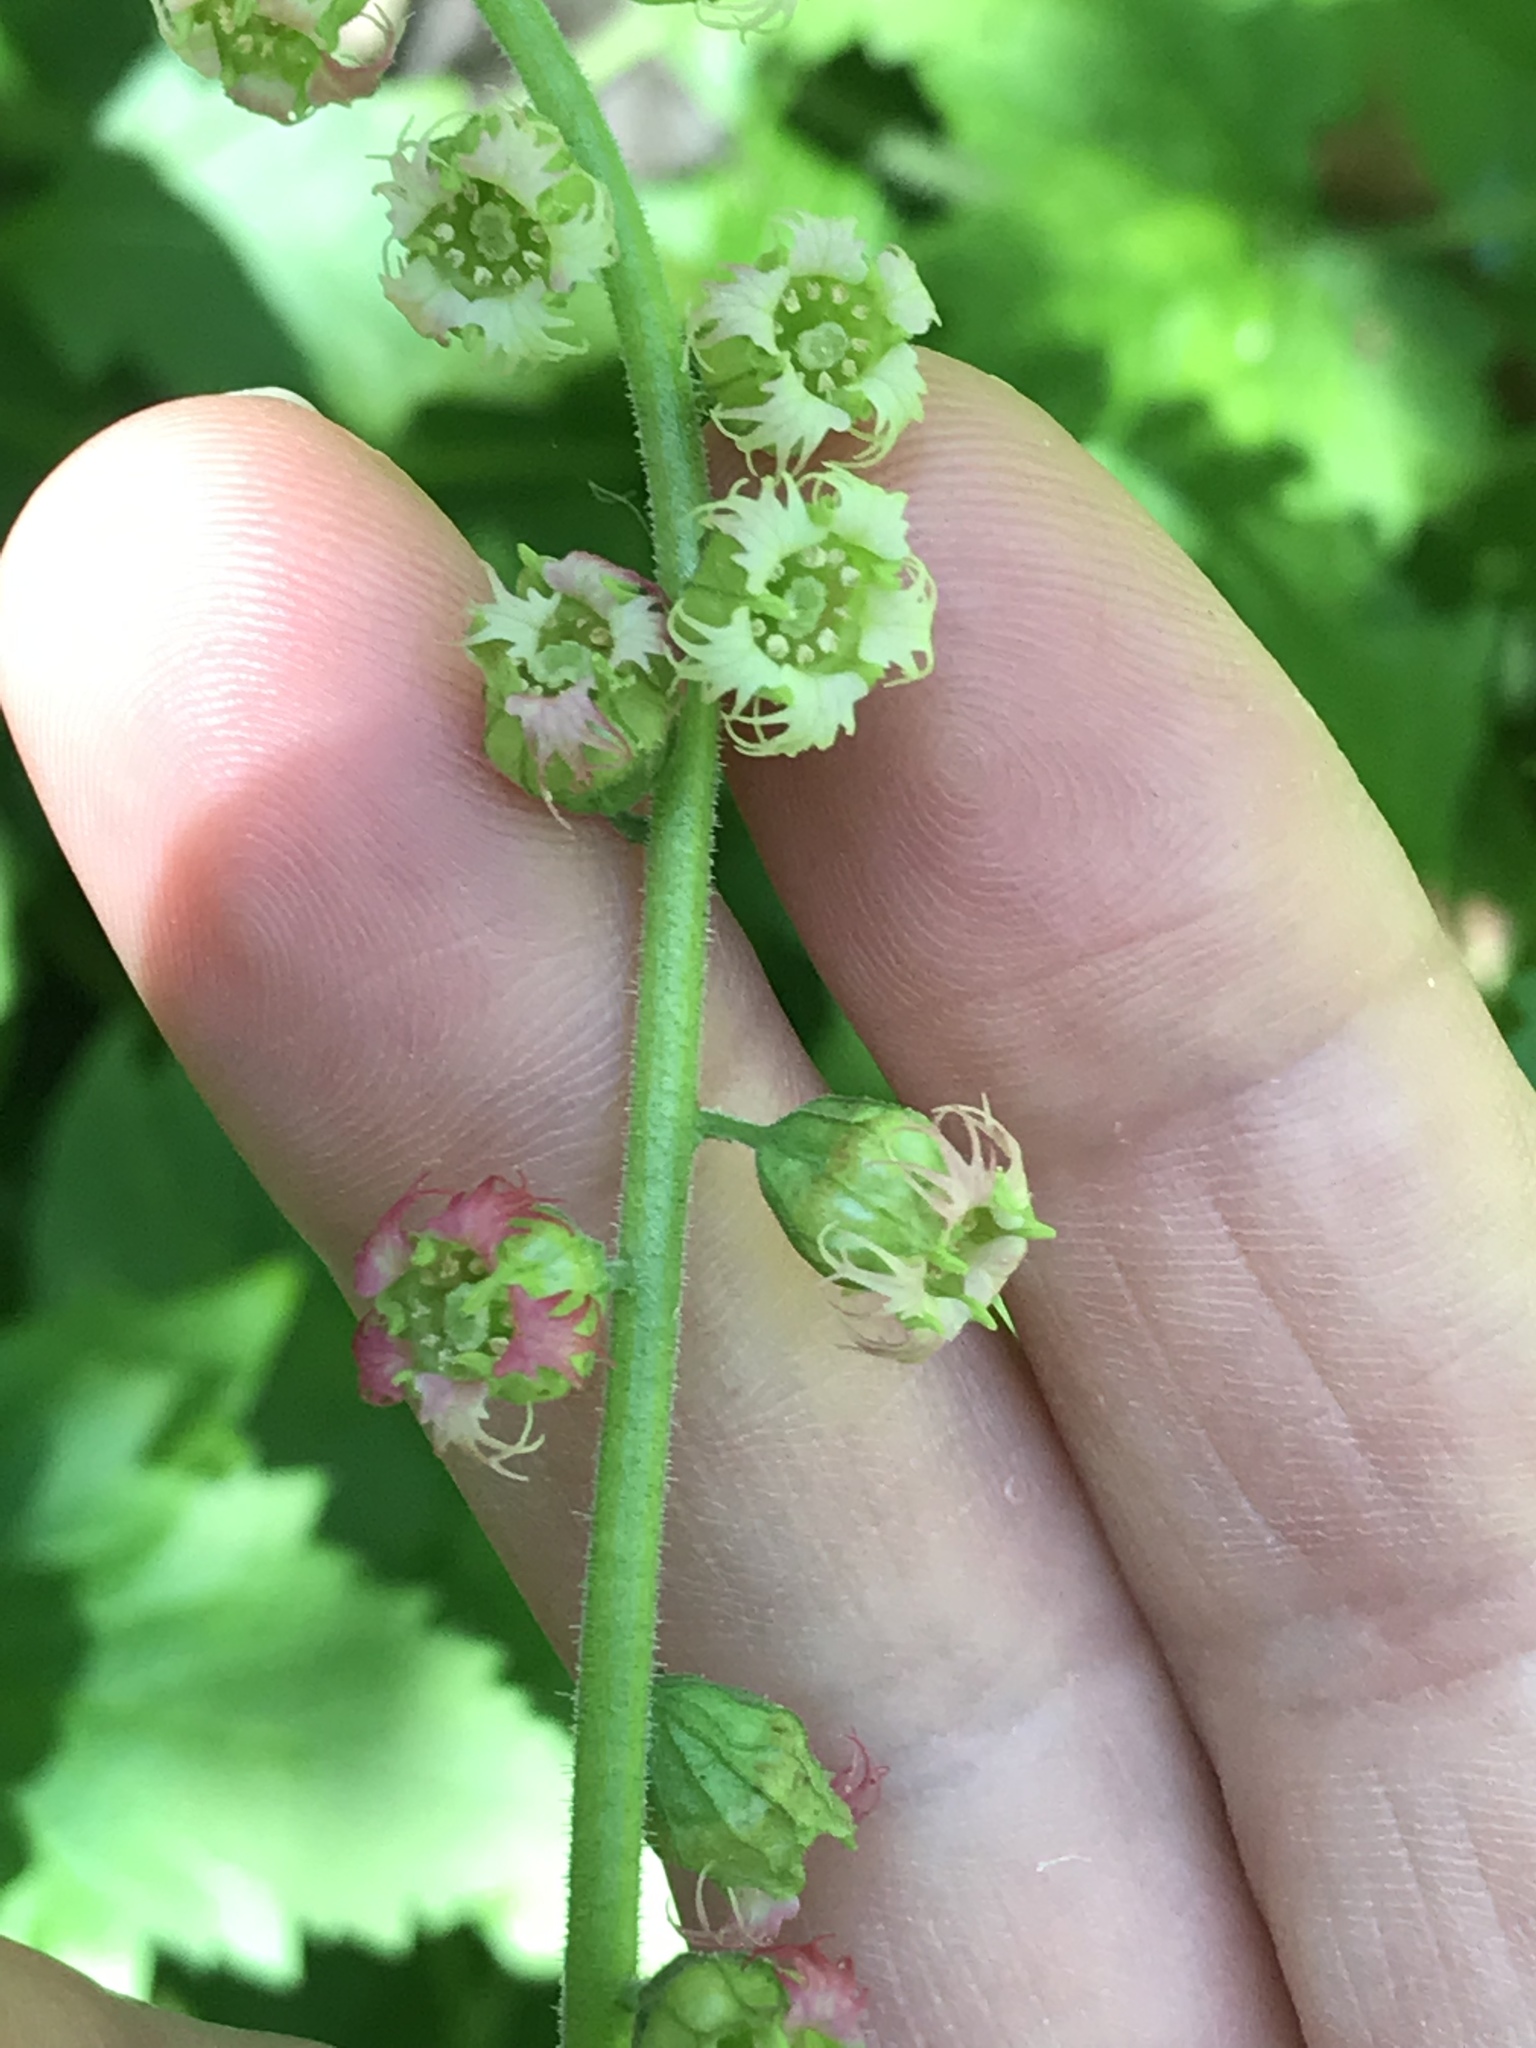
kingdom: Plantae
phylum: Tracheophyta
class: Magnoliopsida
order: Saxifragales
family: Saxifragaceae
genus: Tellima
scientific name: Tellima grandiflora
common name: Fringecups
